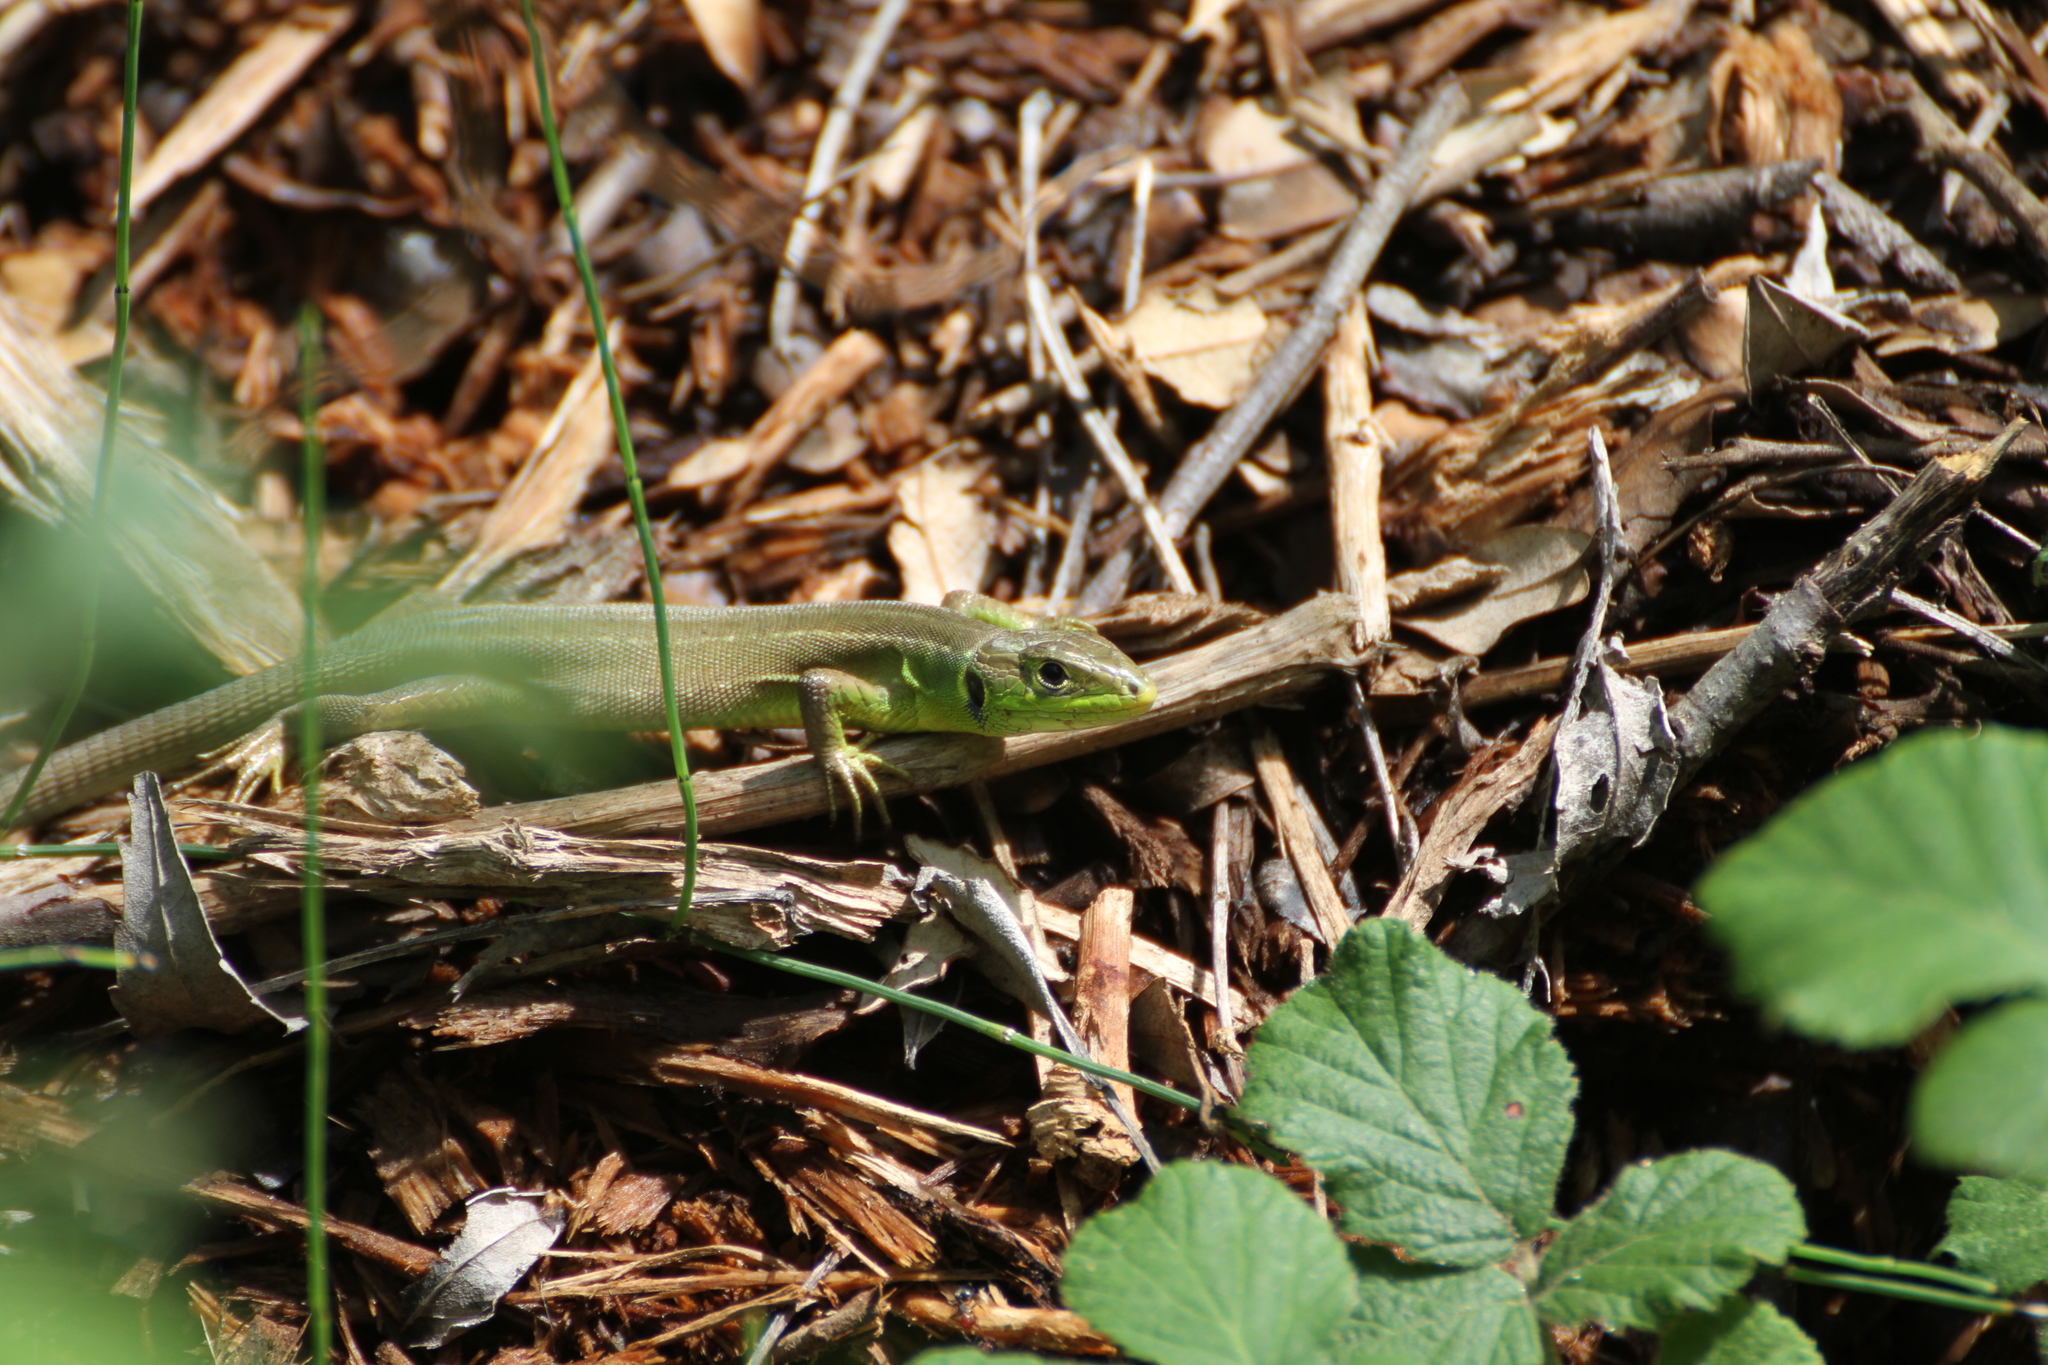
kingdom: Animalia
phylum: Chordata
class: Squamata
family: Lacertidae
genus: Lacerta
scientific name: Lacerta bilineata
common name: Western green lizard
